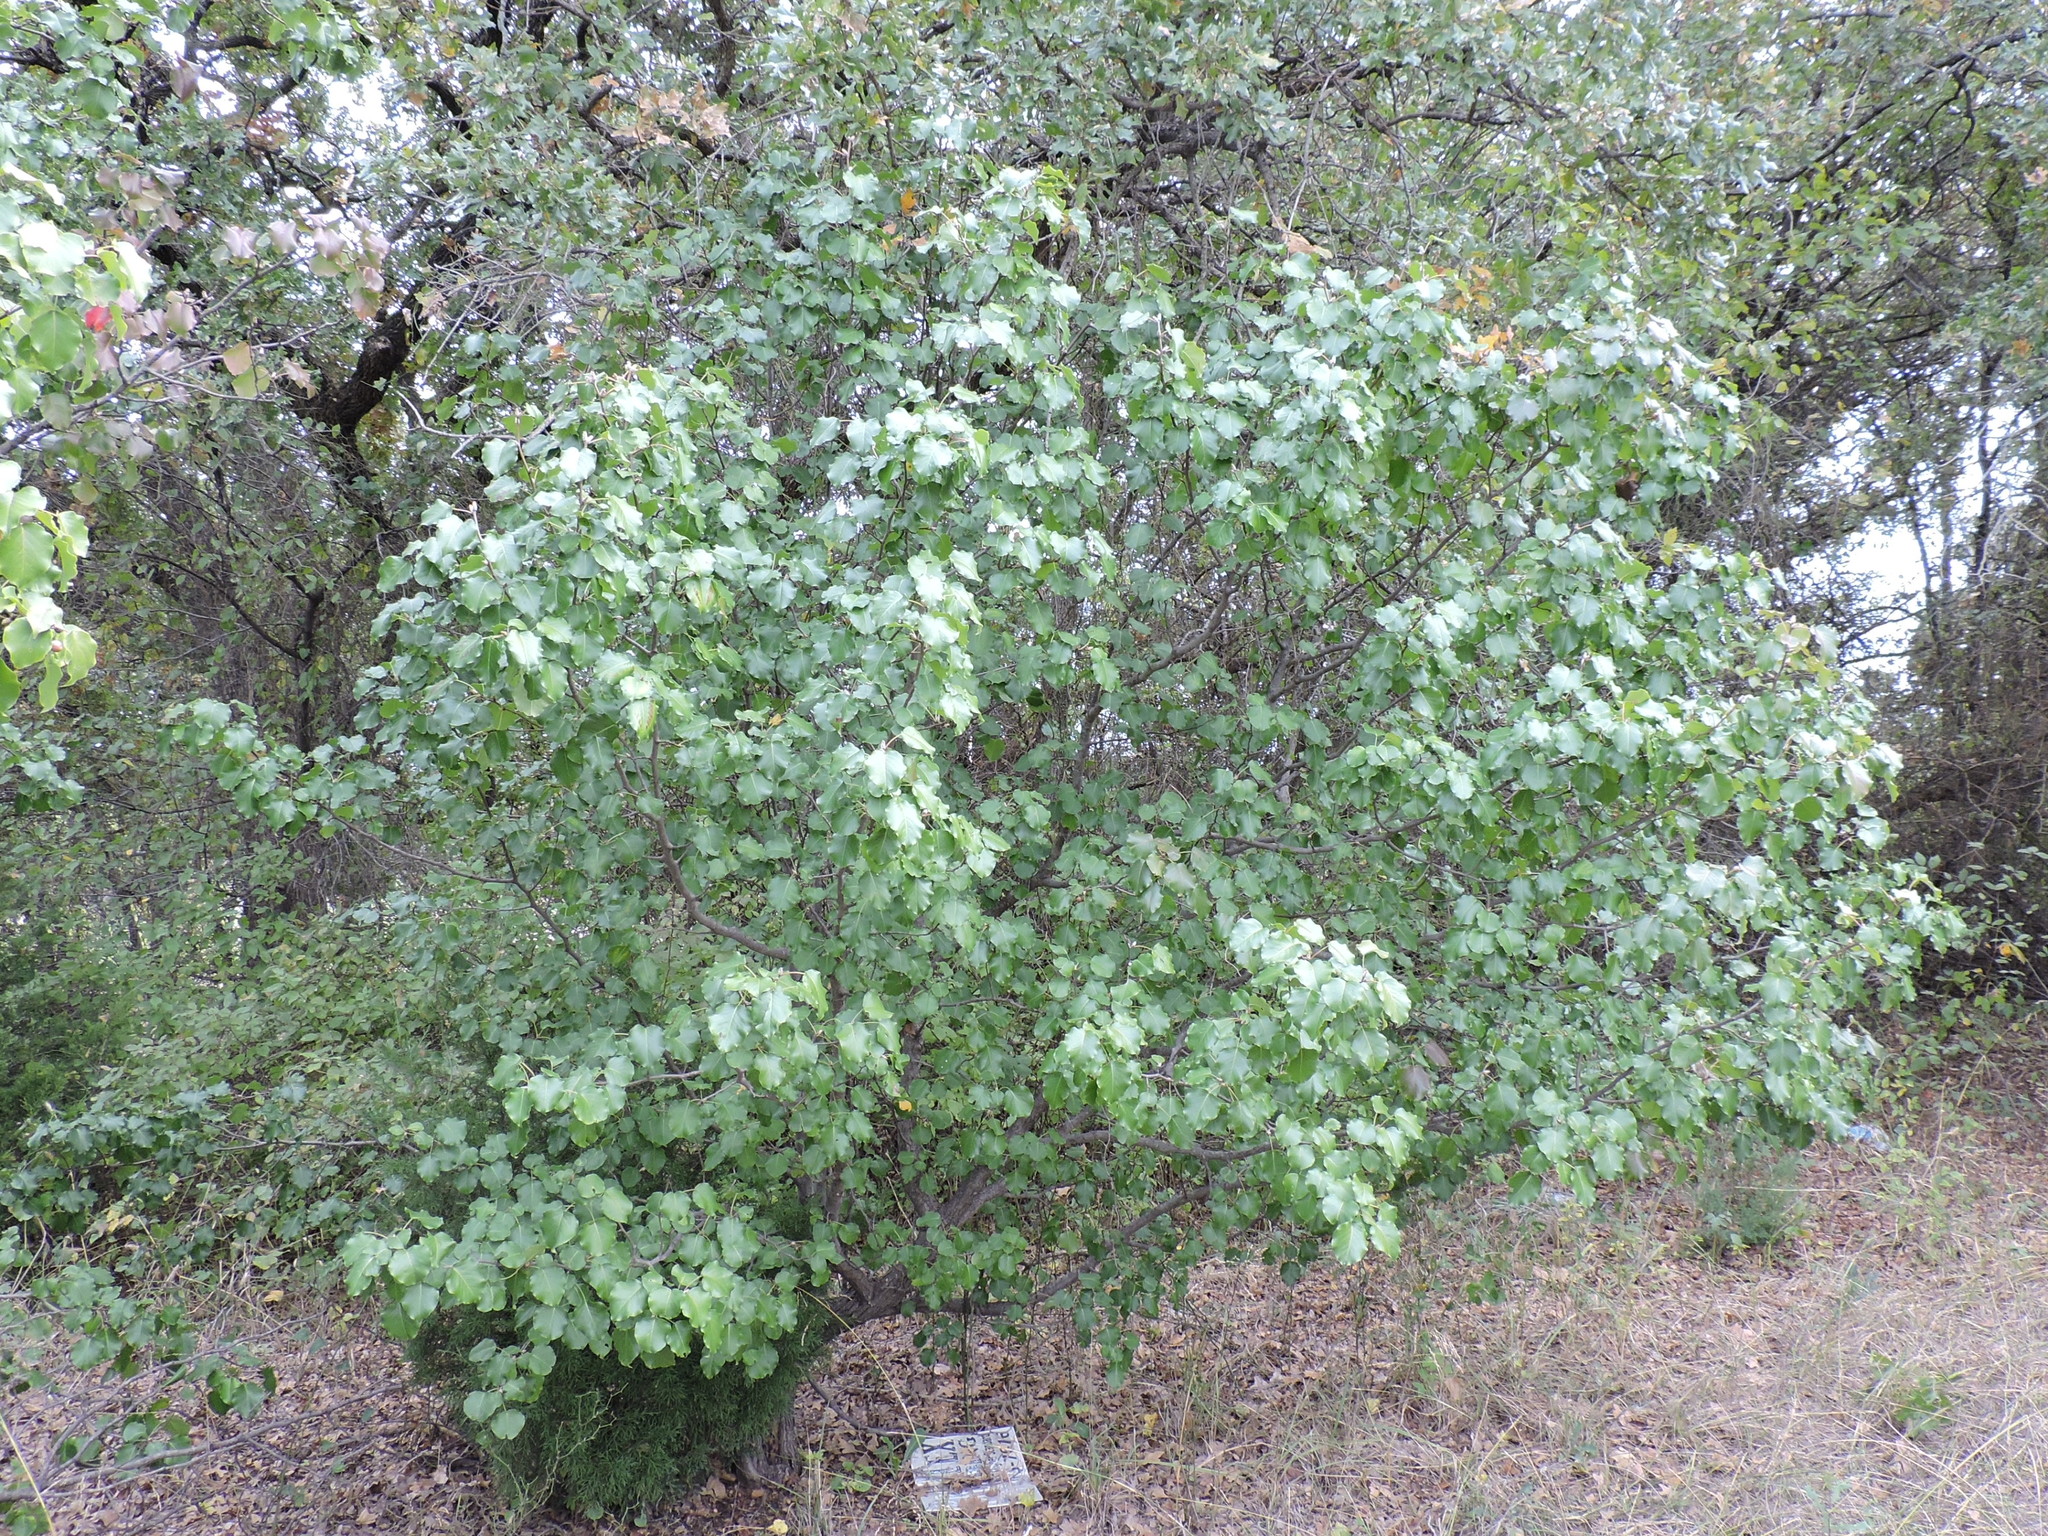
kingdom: Plantae
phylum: Tracheophyta
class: Magnoliopsida
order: Rosales
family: Rosaceae
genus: Pyrus
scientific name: Pyrus calleryana
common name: Callery pear
